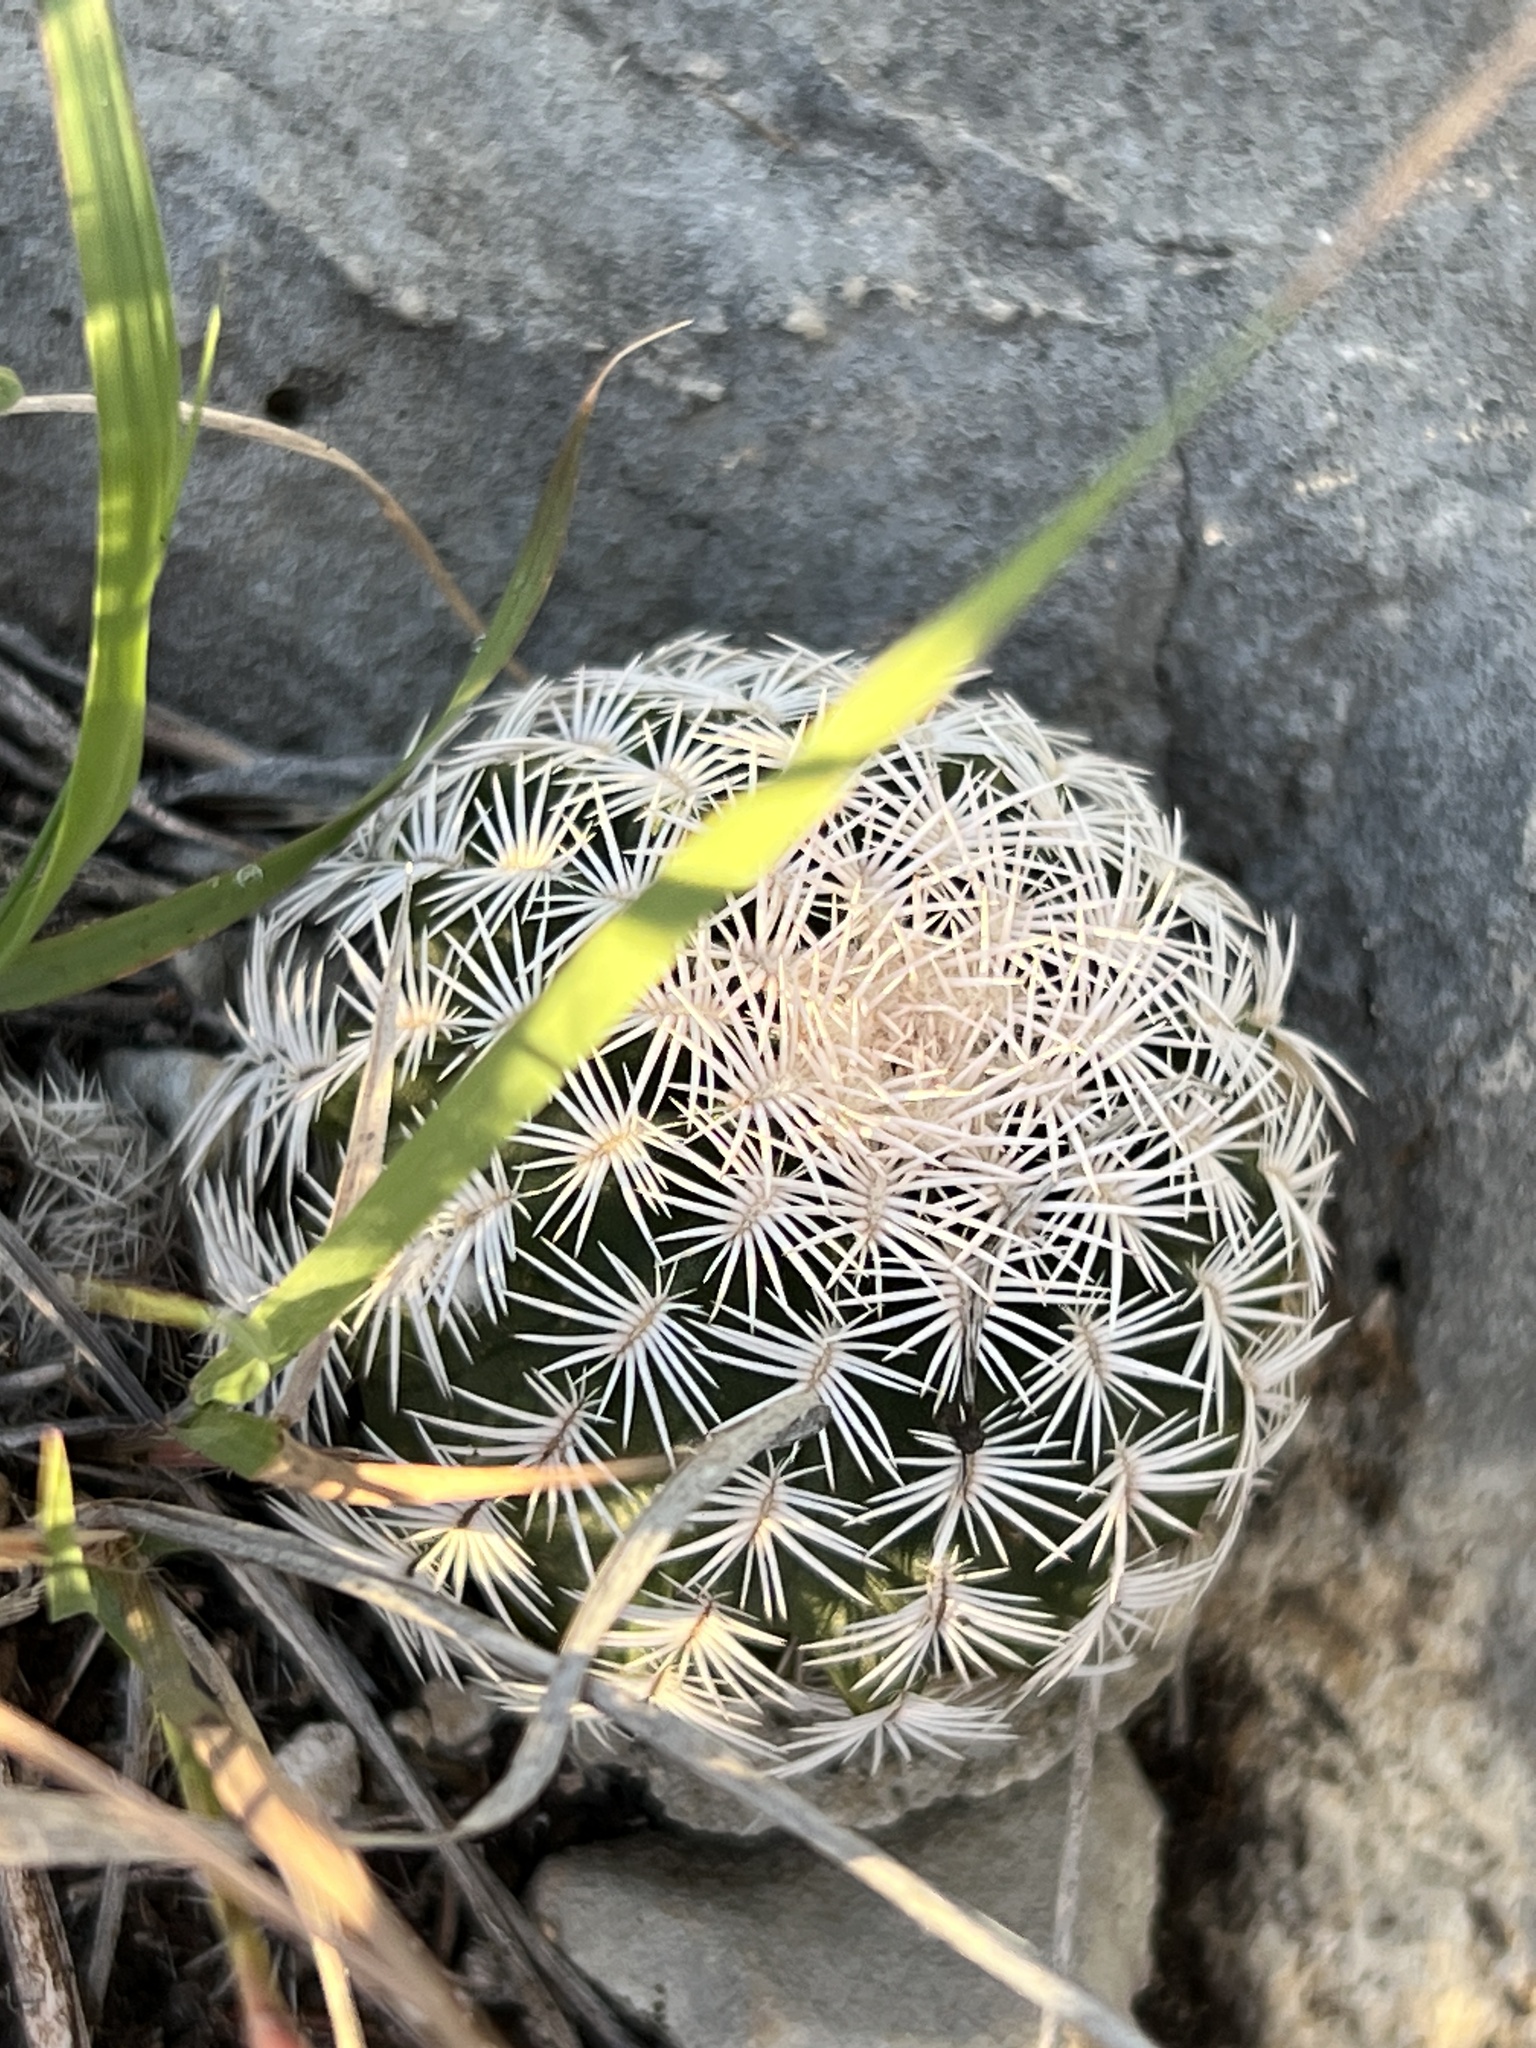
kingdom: Plantae
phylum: Tracheophyta
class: Magnoliopsida
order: Caryophyllales
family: Cactaceae
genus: Echinocereus
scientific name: Echinocereus reichenbachii
